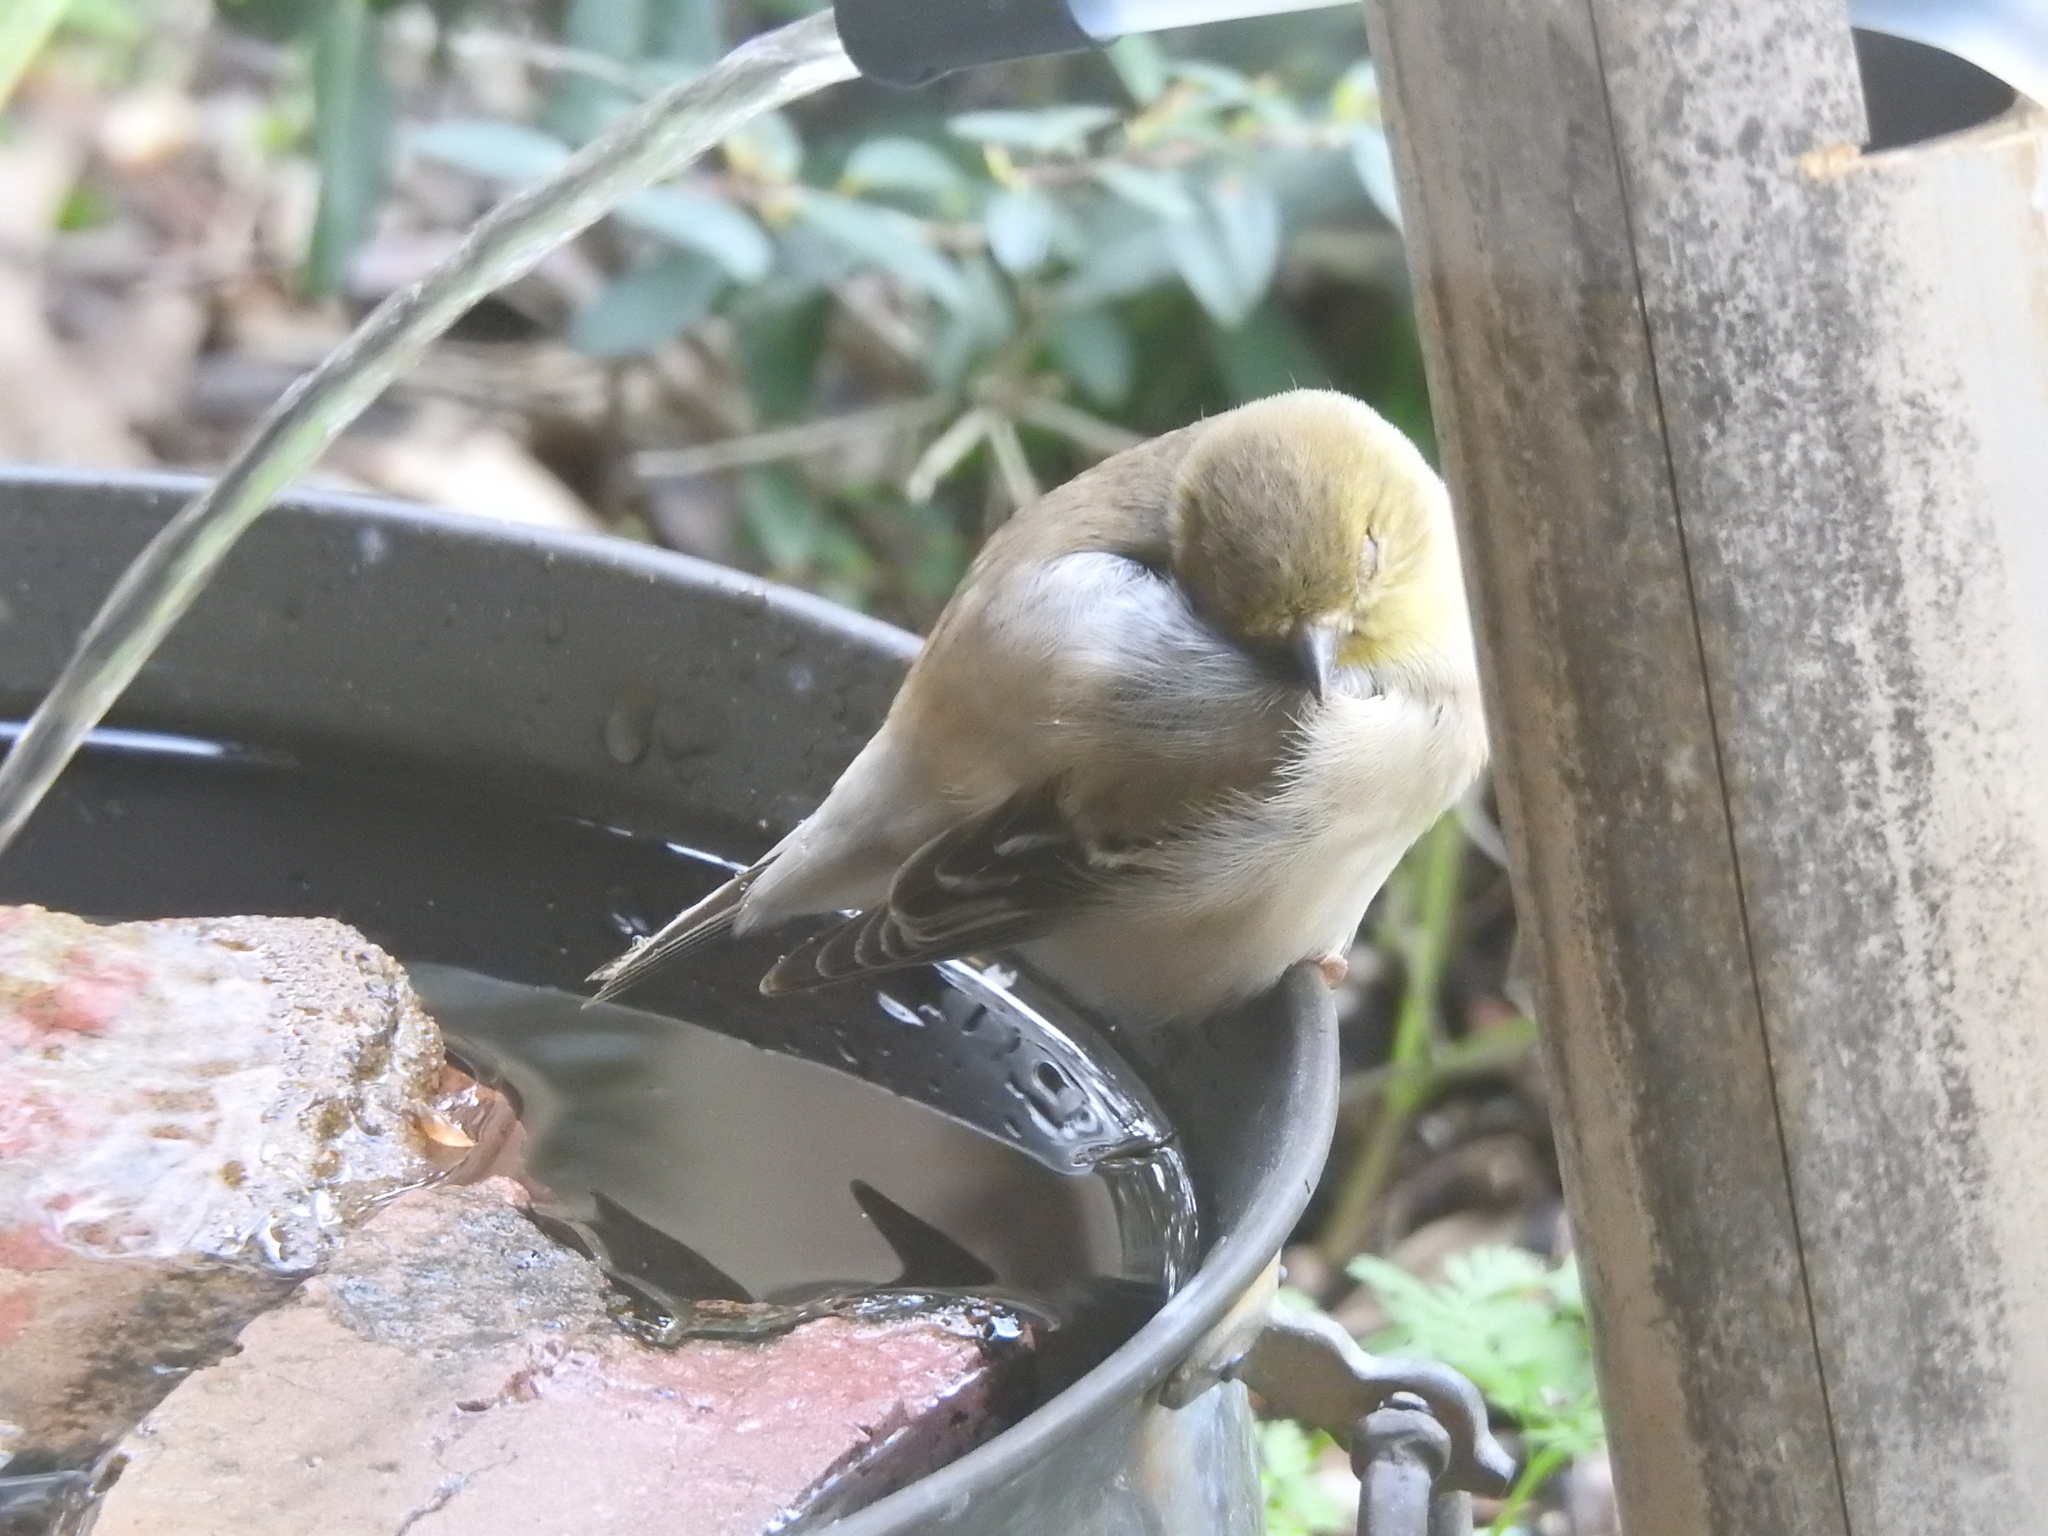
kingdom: Bacteria
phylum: Firmicutes
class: Bacilli
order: Mycoplasmatales
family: Mycoplasmataceae
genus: Mycoplasma
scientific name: Mycoplasma gallisepticum
